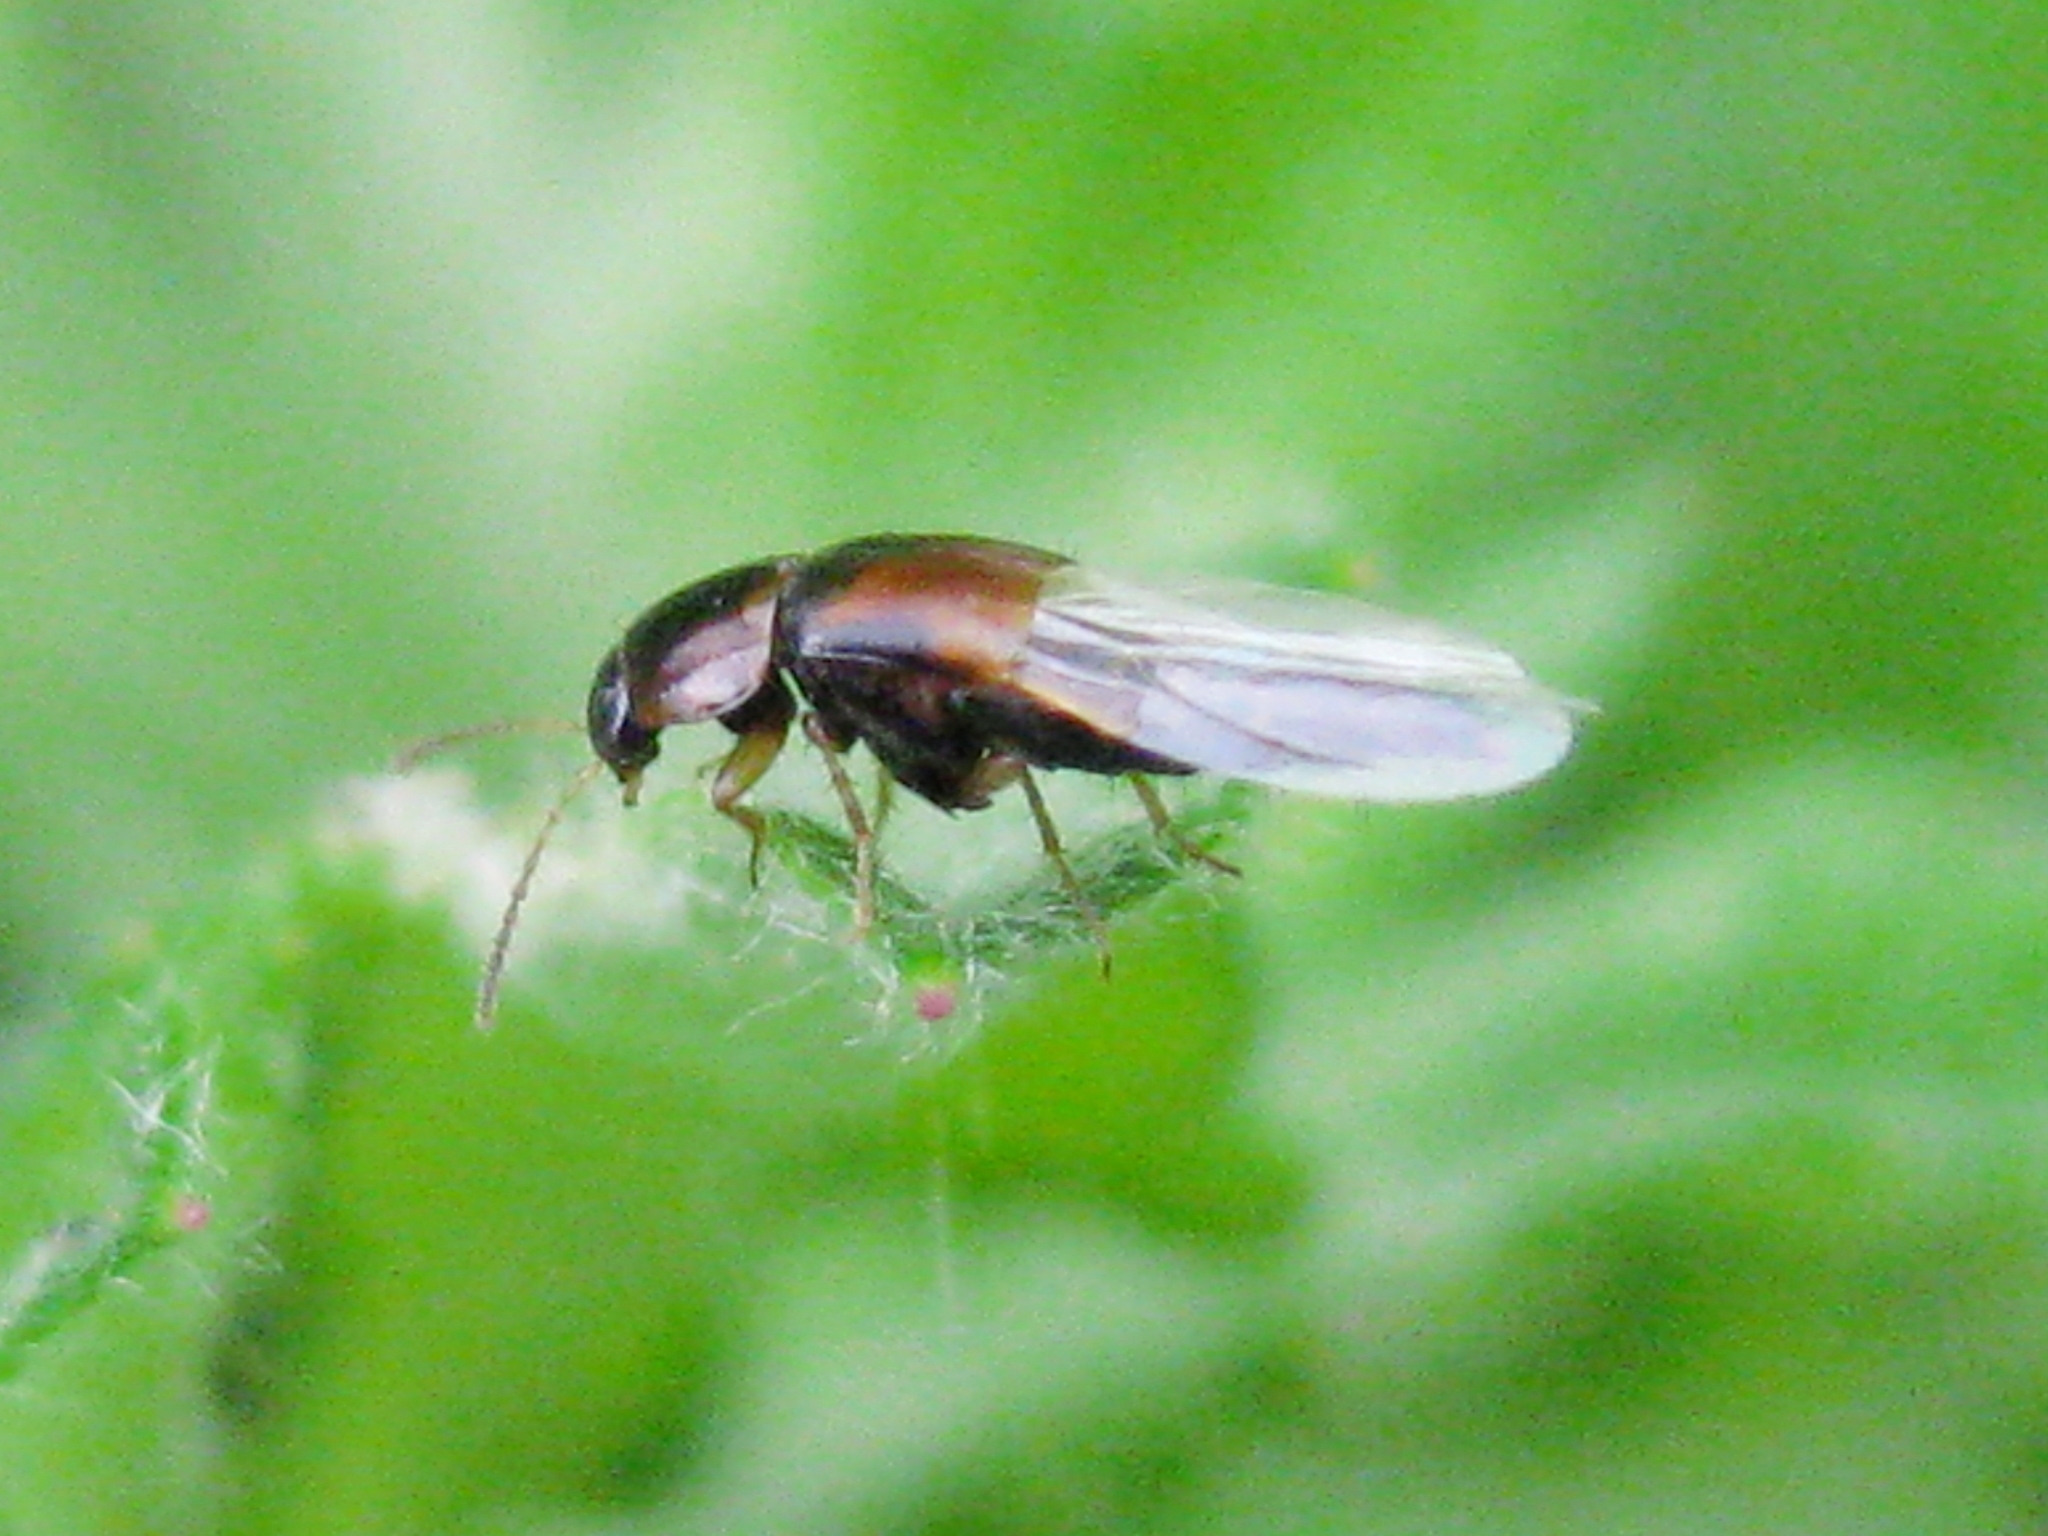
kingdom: Animalia
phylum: Arthropoda
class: Insecta
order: Coleoptera
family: Staphylinidae
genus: Tachyporus
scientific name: Tachyporus hypnorum
